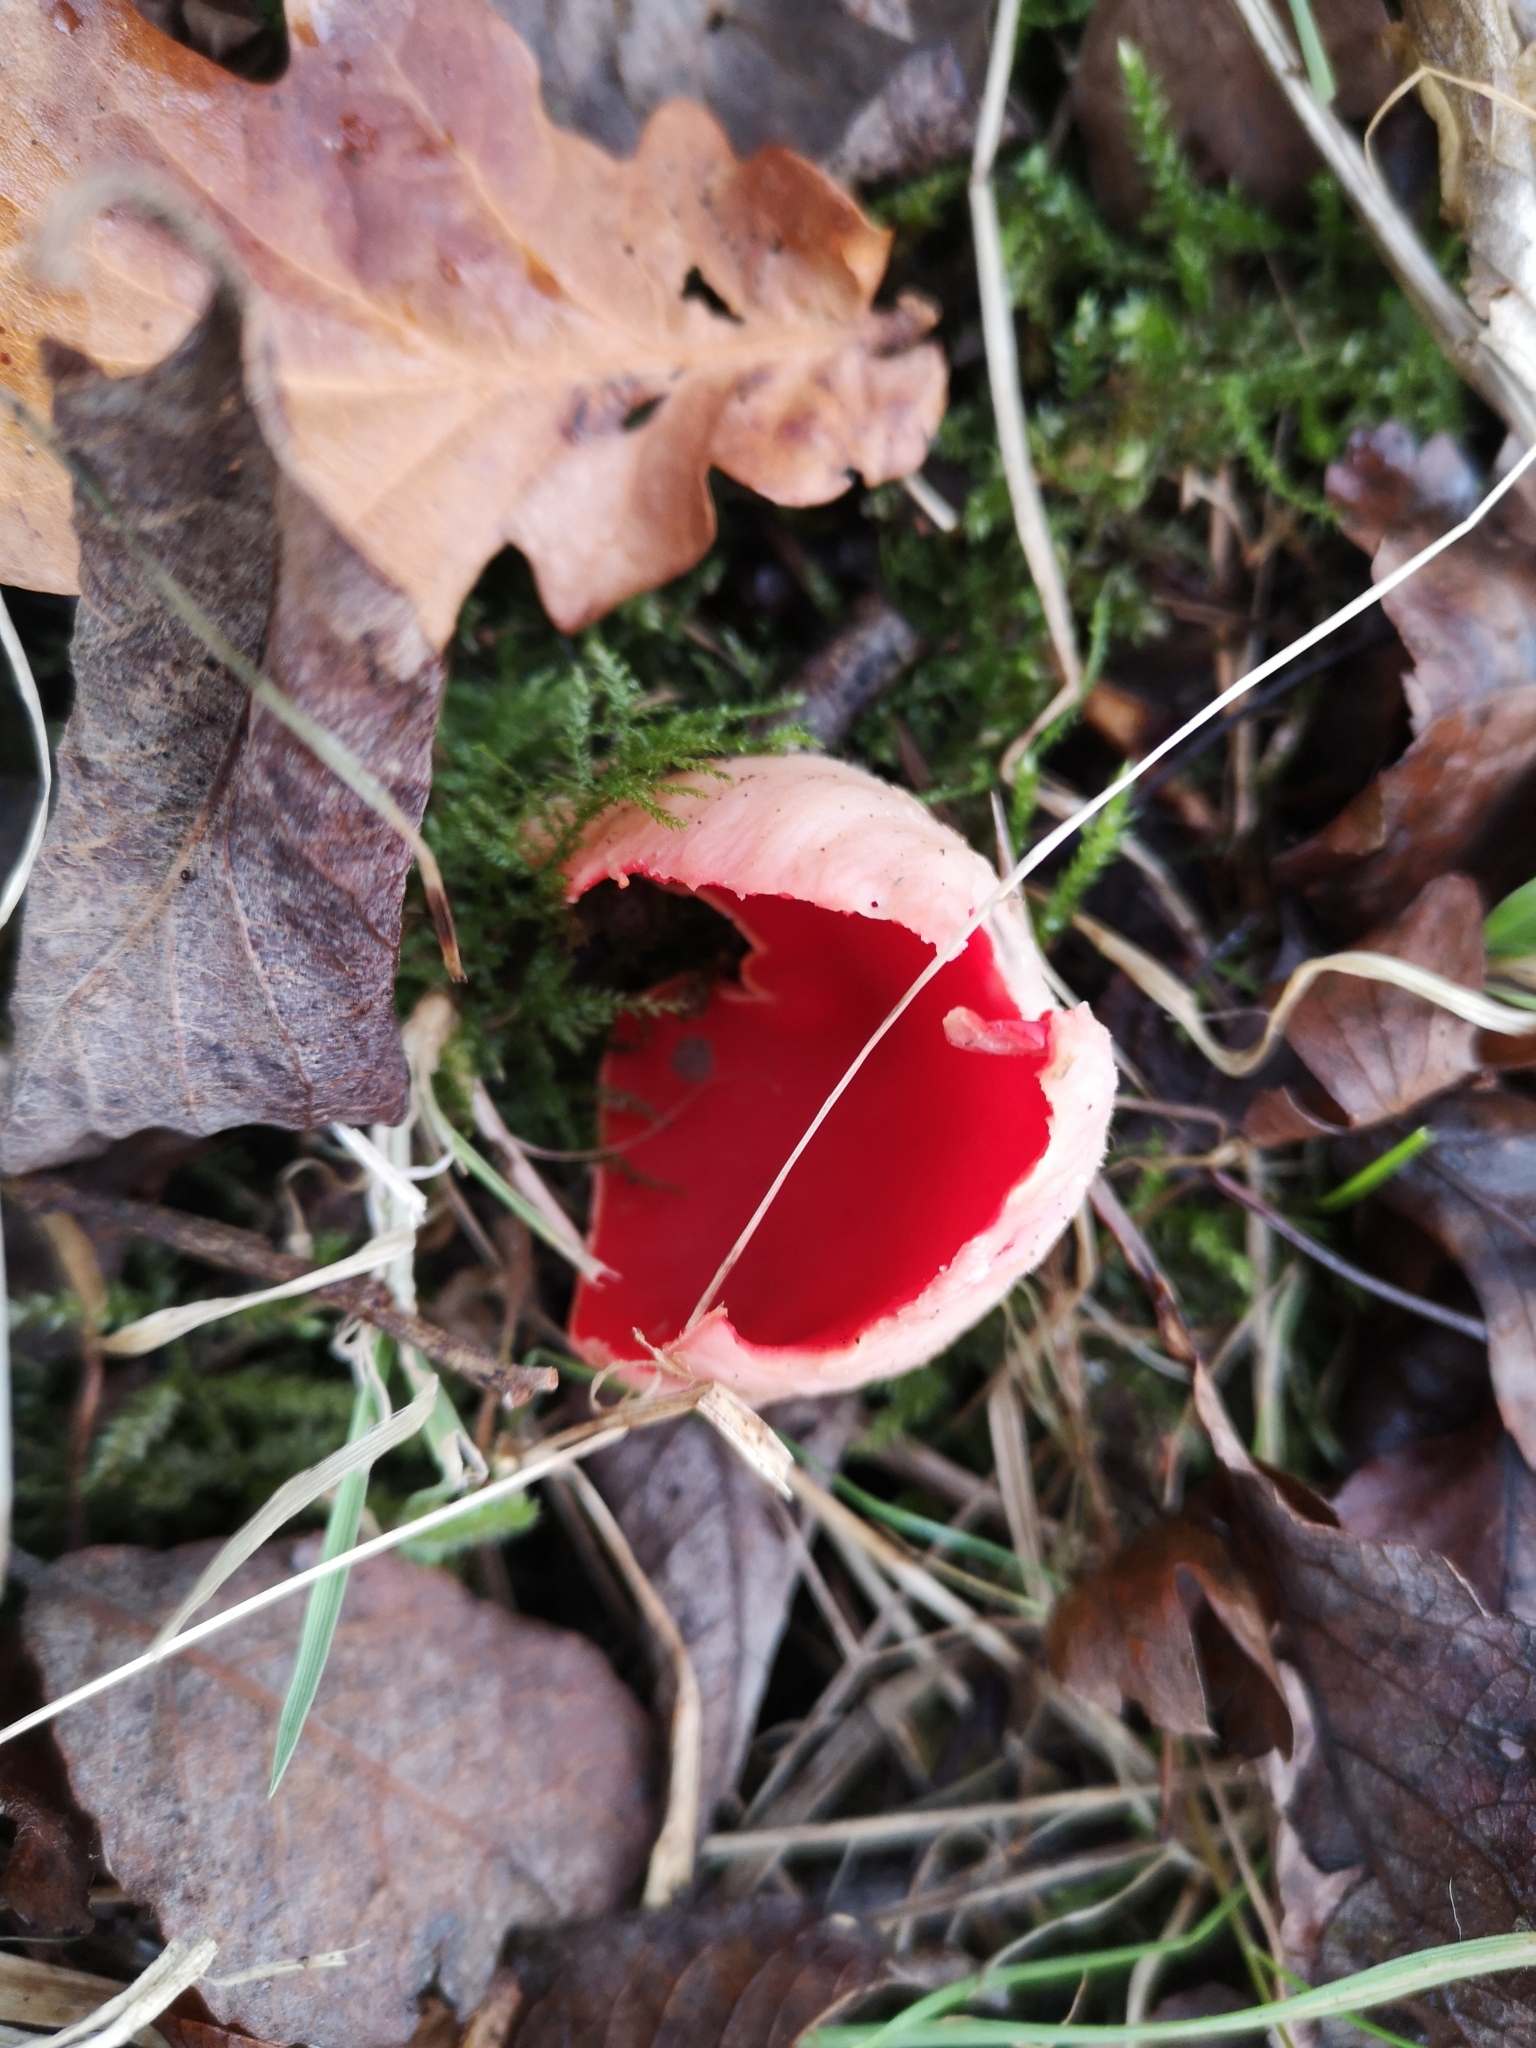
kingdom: Fungi
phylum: Ascomycota
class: Pezizomycetes
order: Pezizales
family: Sarcoscyphaceae
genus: Sarcoscypha
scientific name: Sarcoscypha
